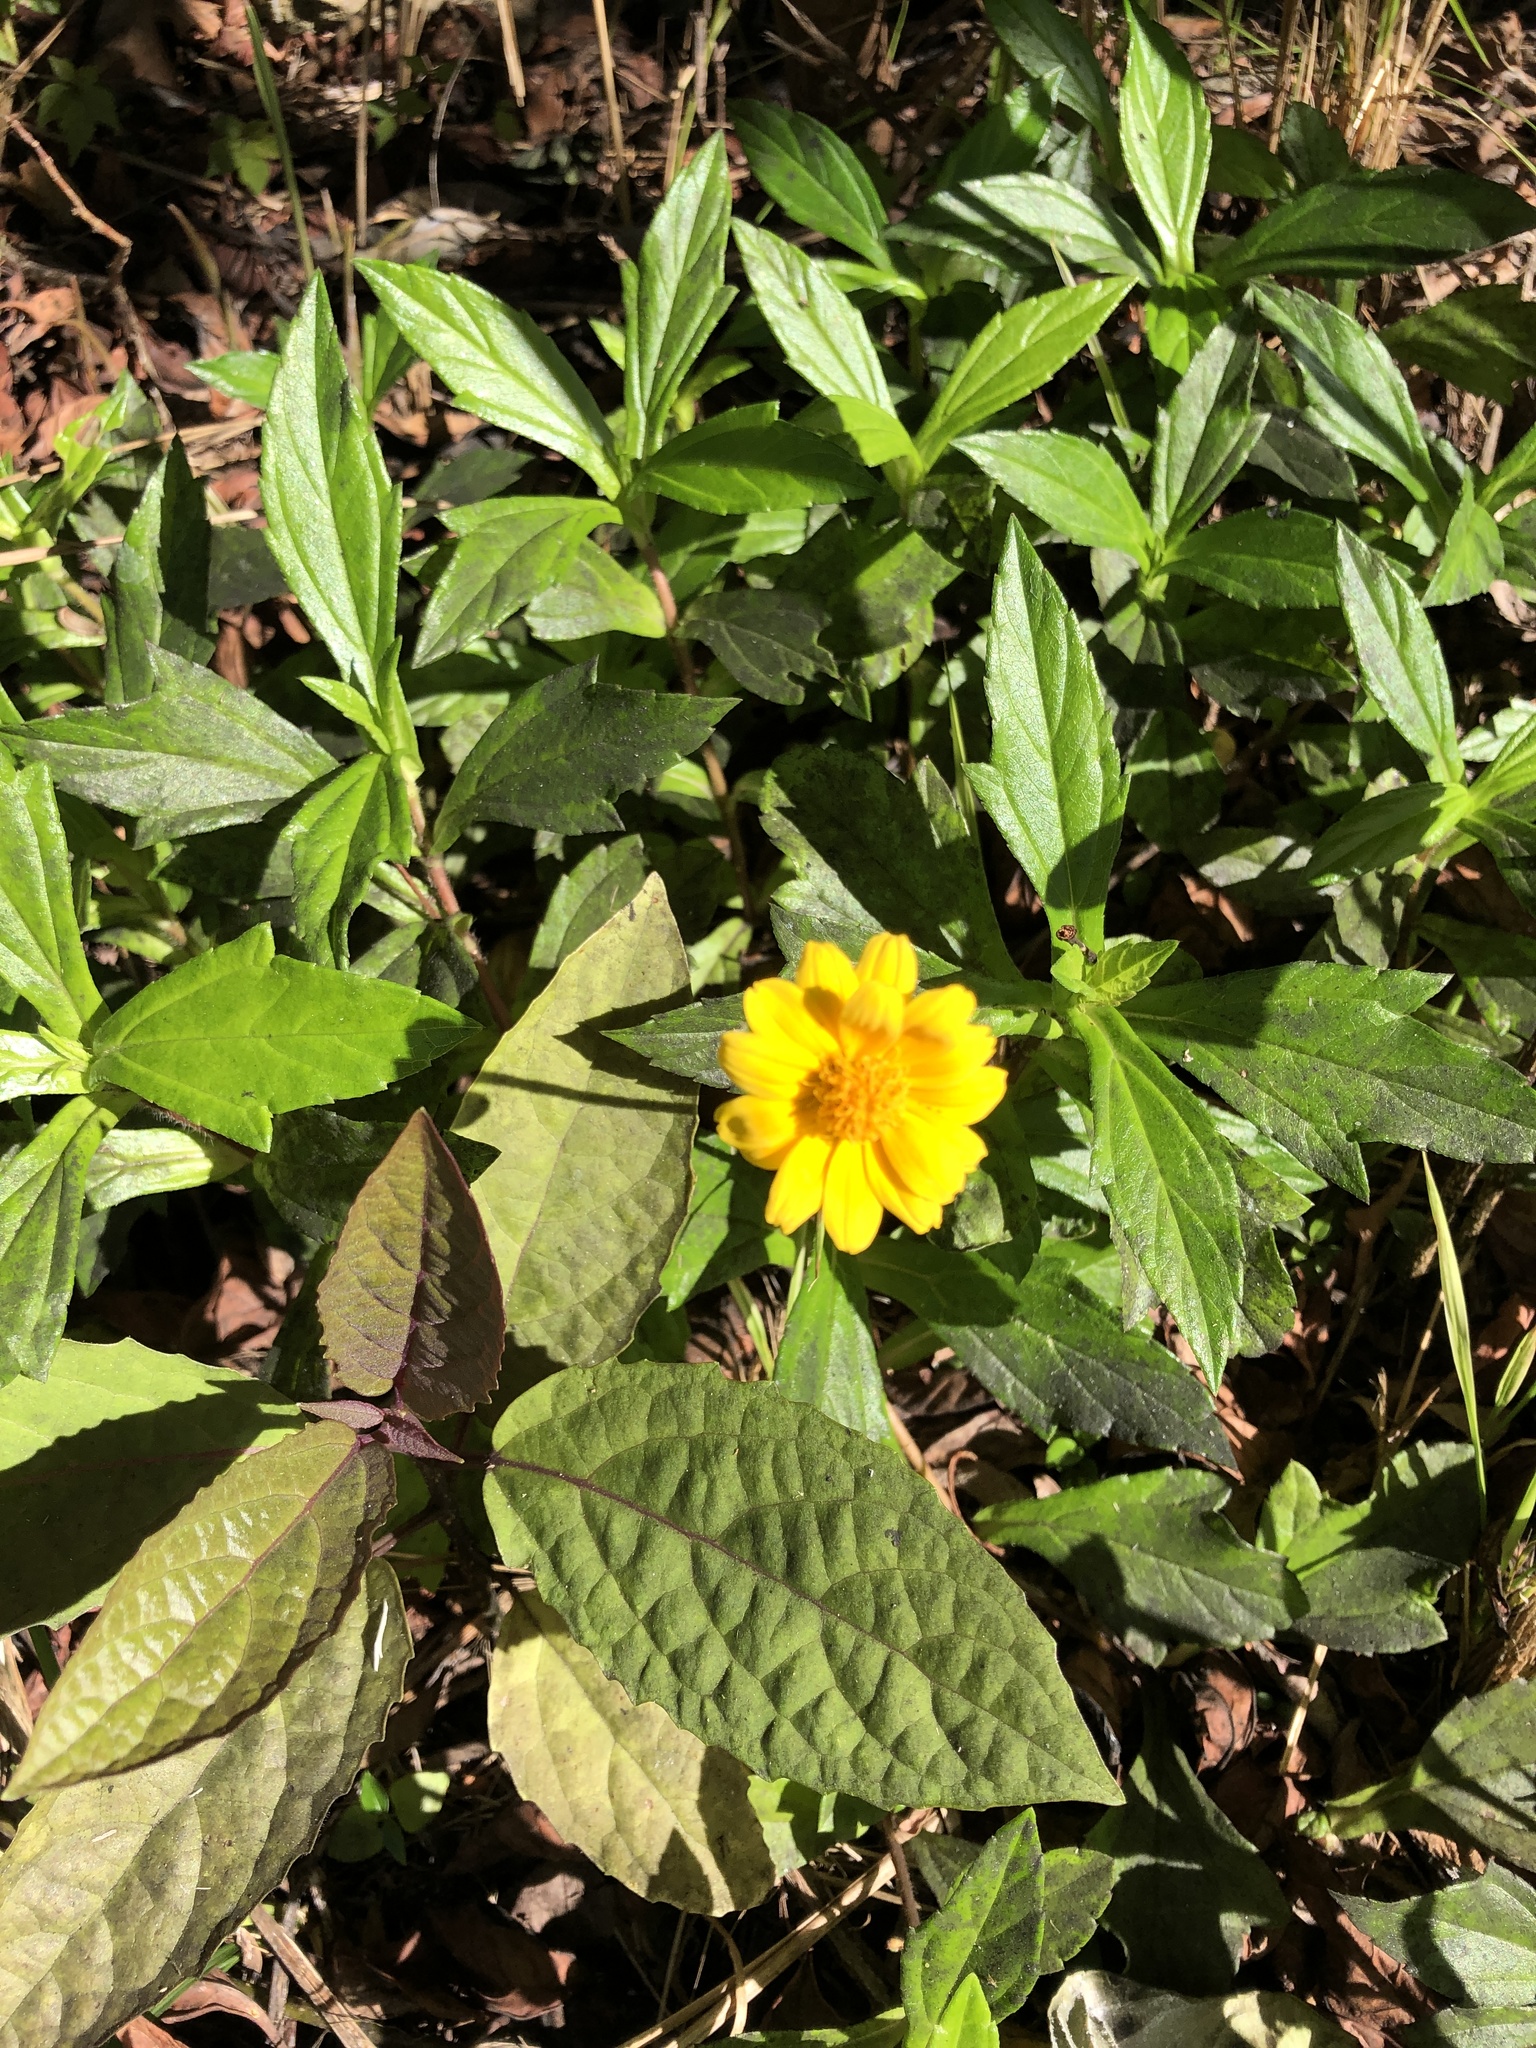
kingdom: Plantae
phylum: Tracheophyta
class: Magnoliopsida
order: Asterales
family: Asteraceae
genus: Sphagneticola
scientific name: Sphagneticola trilobata
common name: Bay biscayne creeping-oxeye
